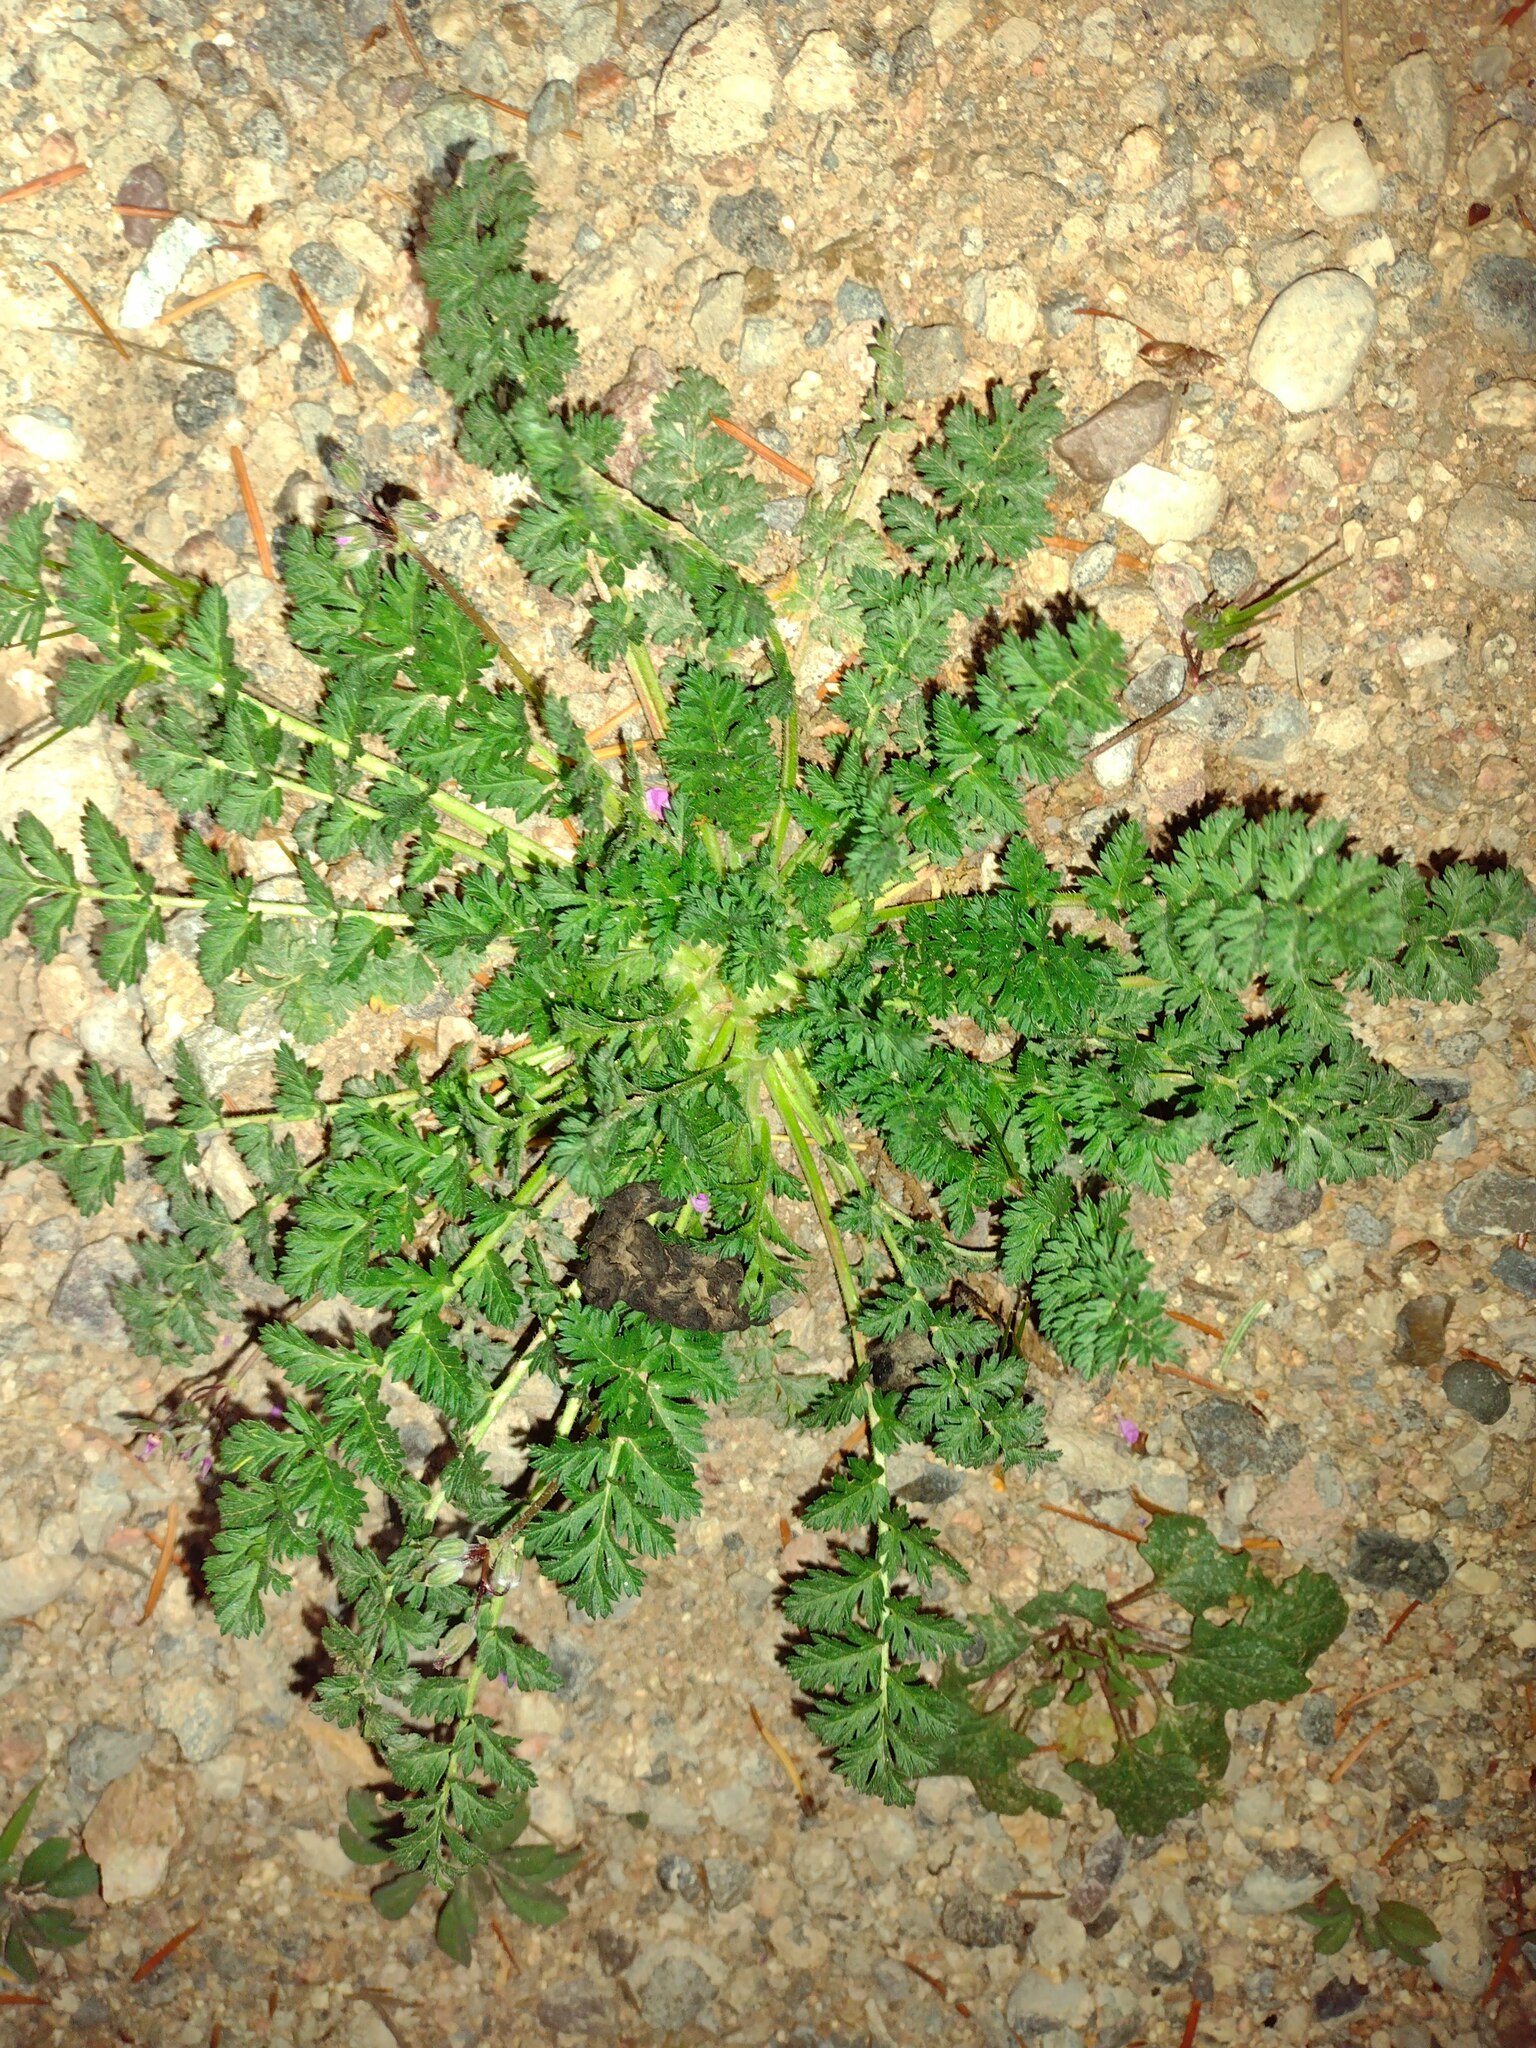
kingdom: Plantae
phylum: Tracheophyta
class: Magnoliopsida
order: Geraniales
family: Geraniaceae
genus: Erodium
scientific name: Erodium cicutarium
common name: Common stork's-bill
